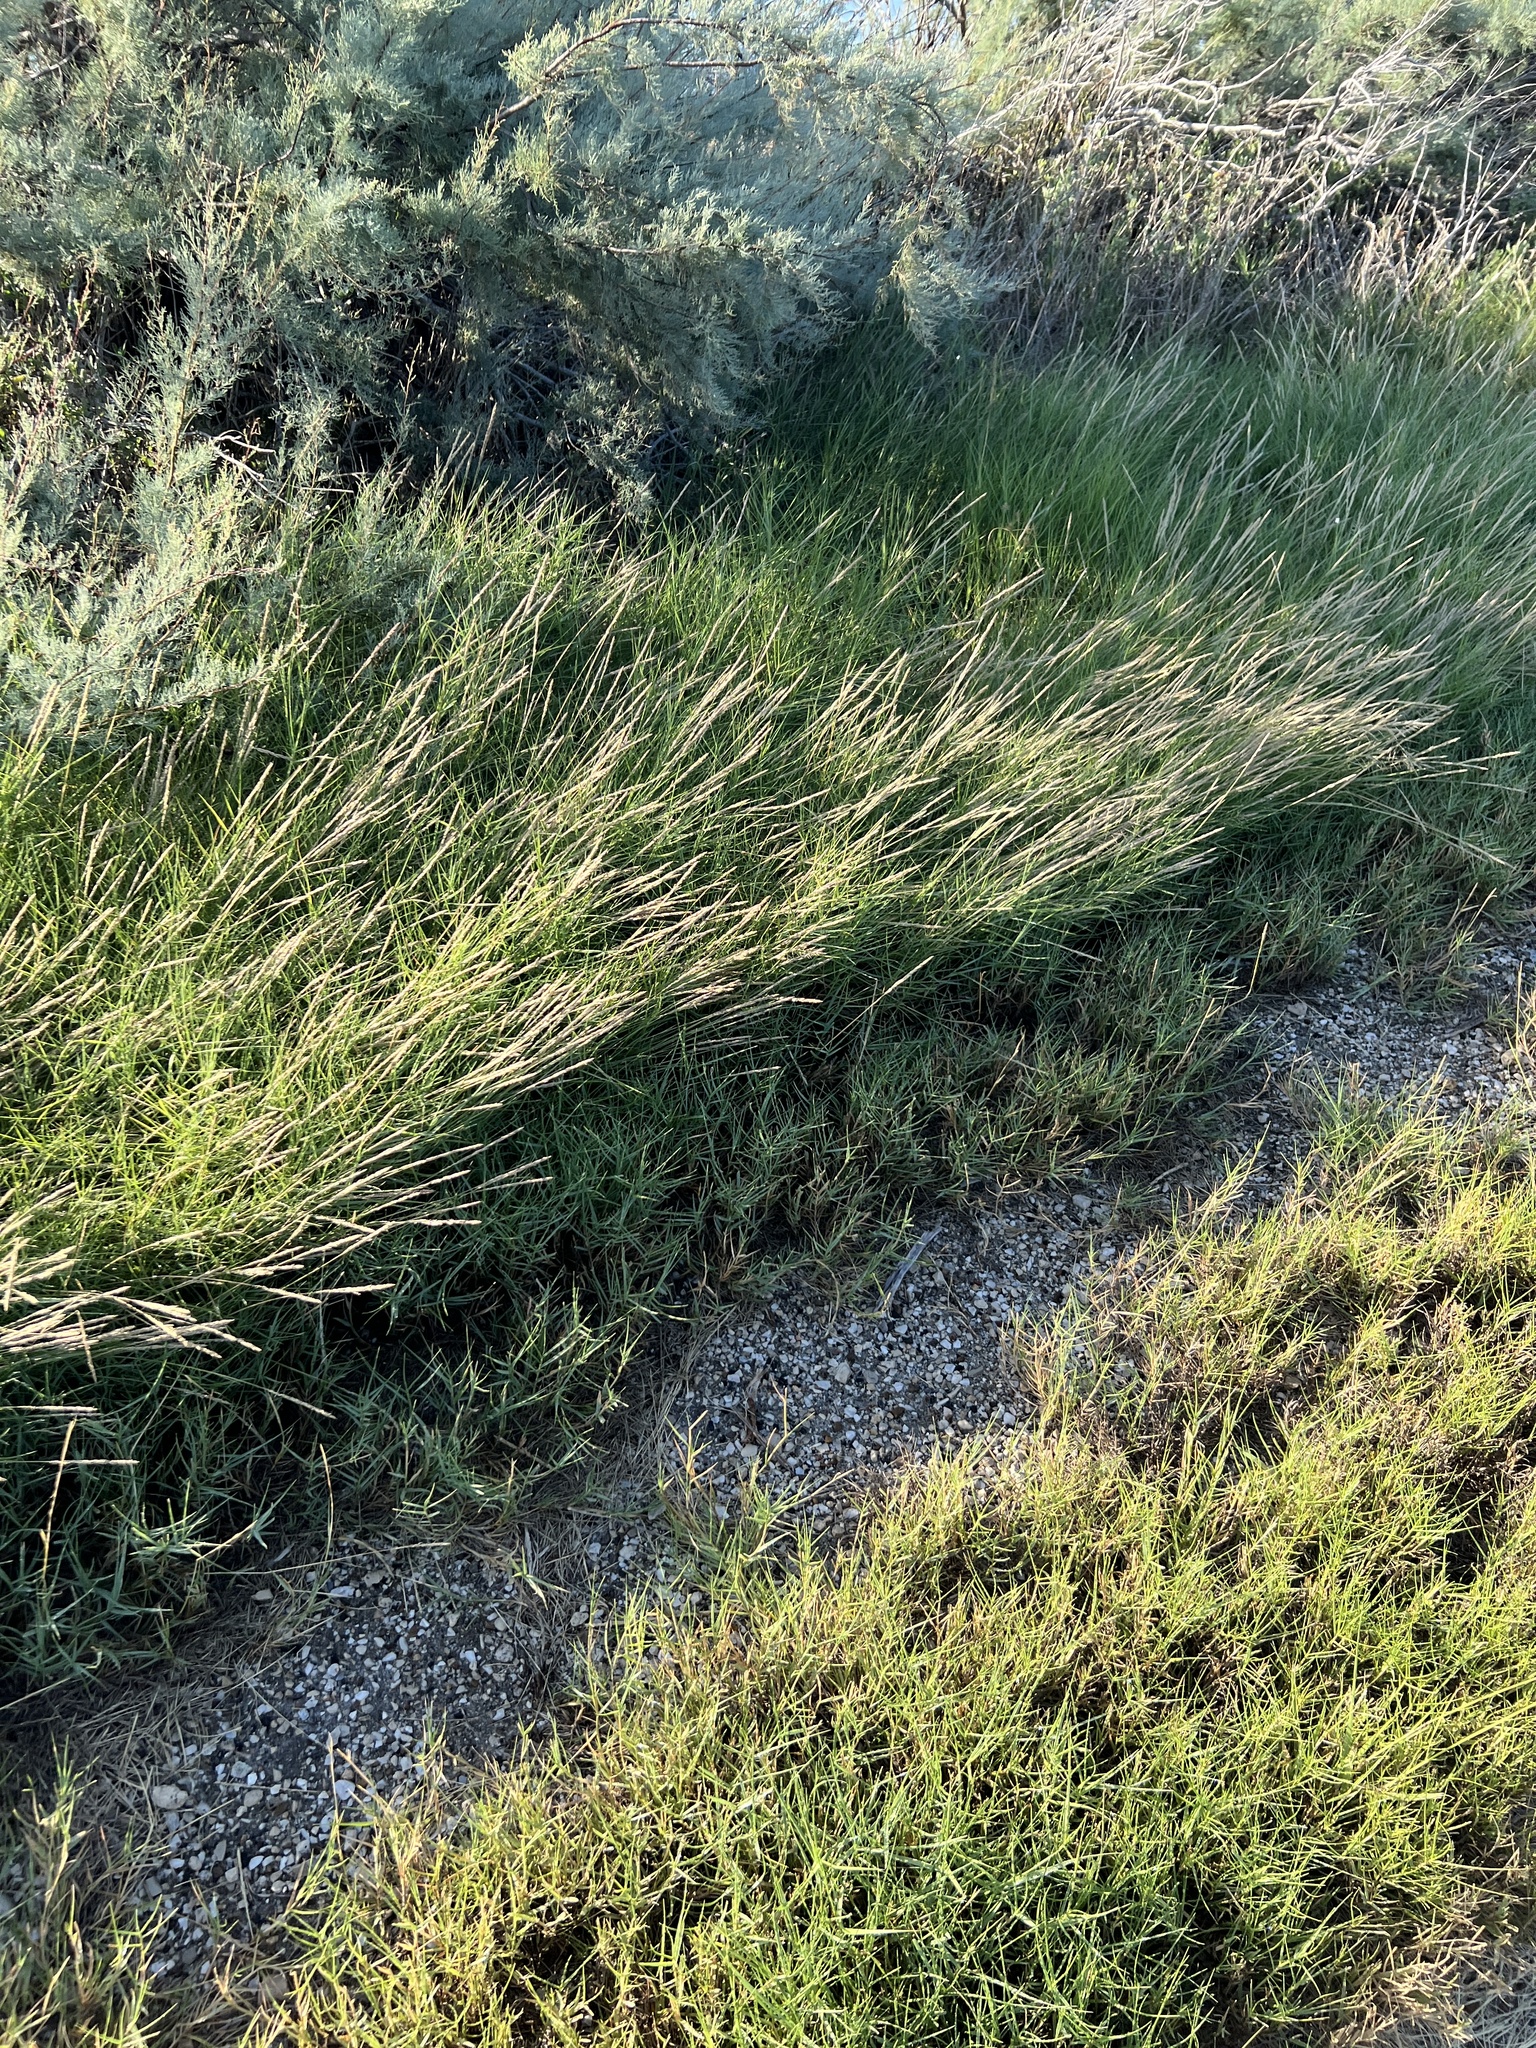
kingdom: Plantae
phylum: Tracheophyta
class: Liliopsida
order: Poales
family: Poaceae
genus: Sporobolus
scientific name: Sporobolus virginicus
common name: Beach dropseed
